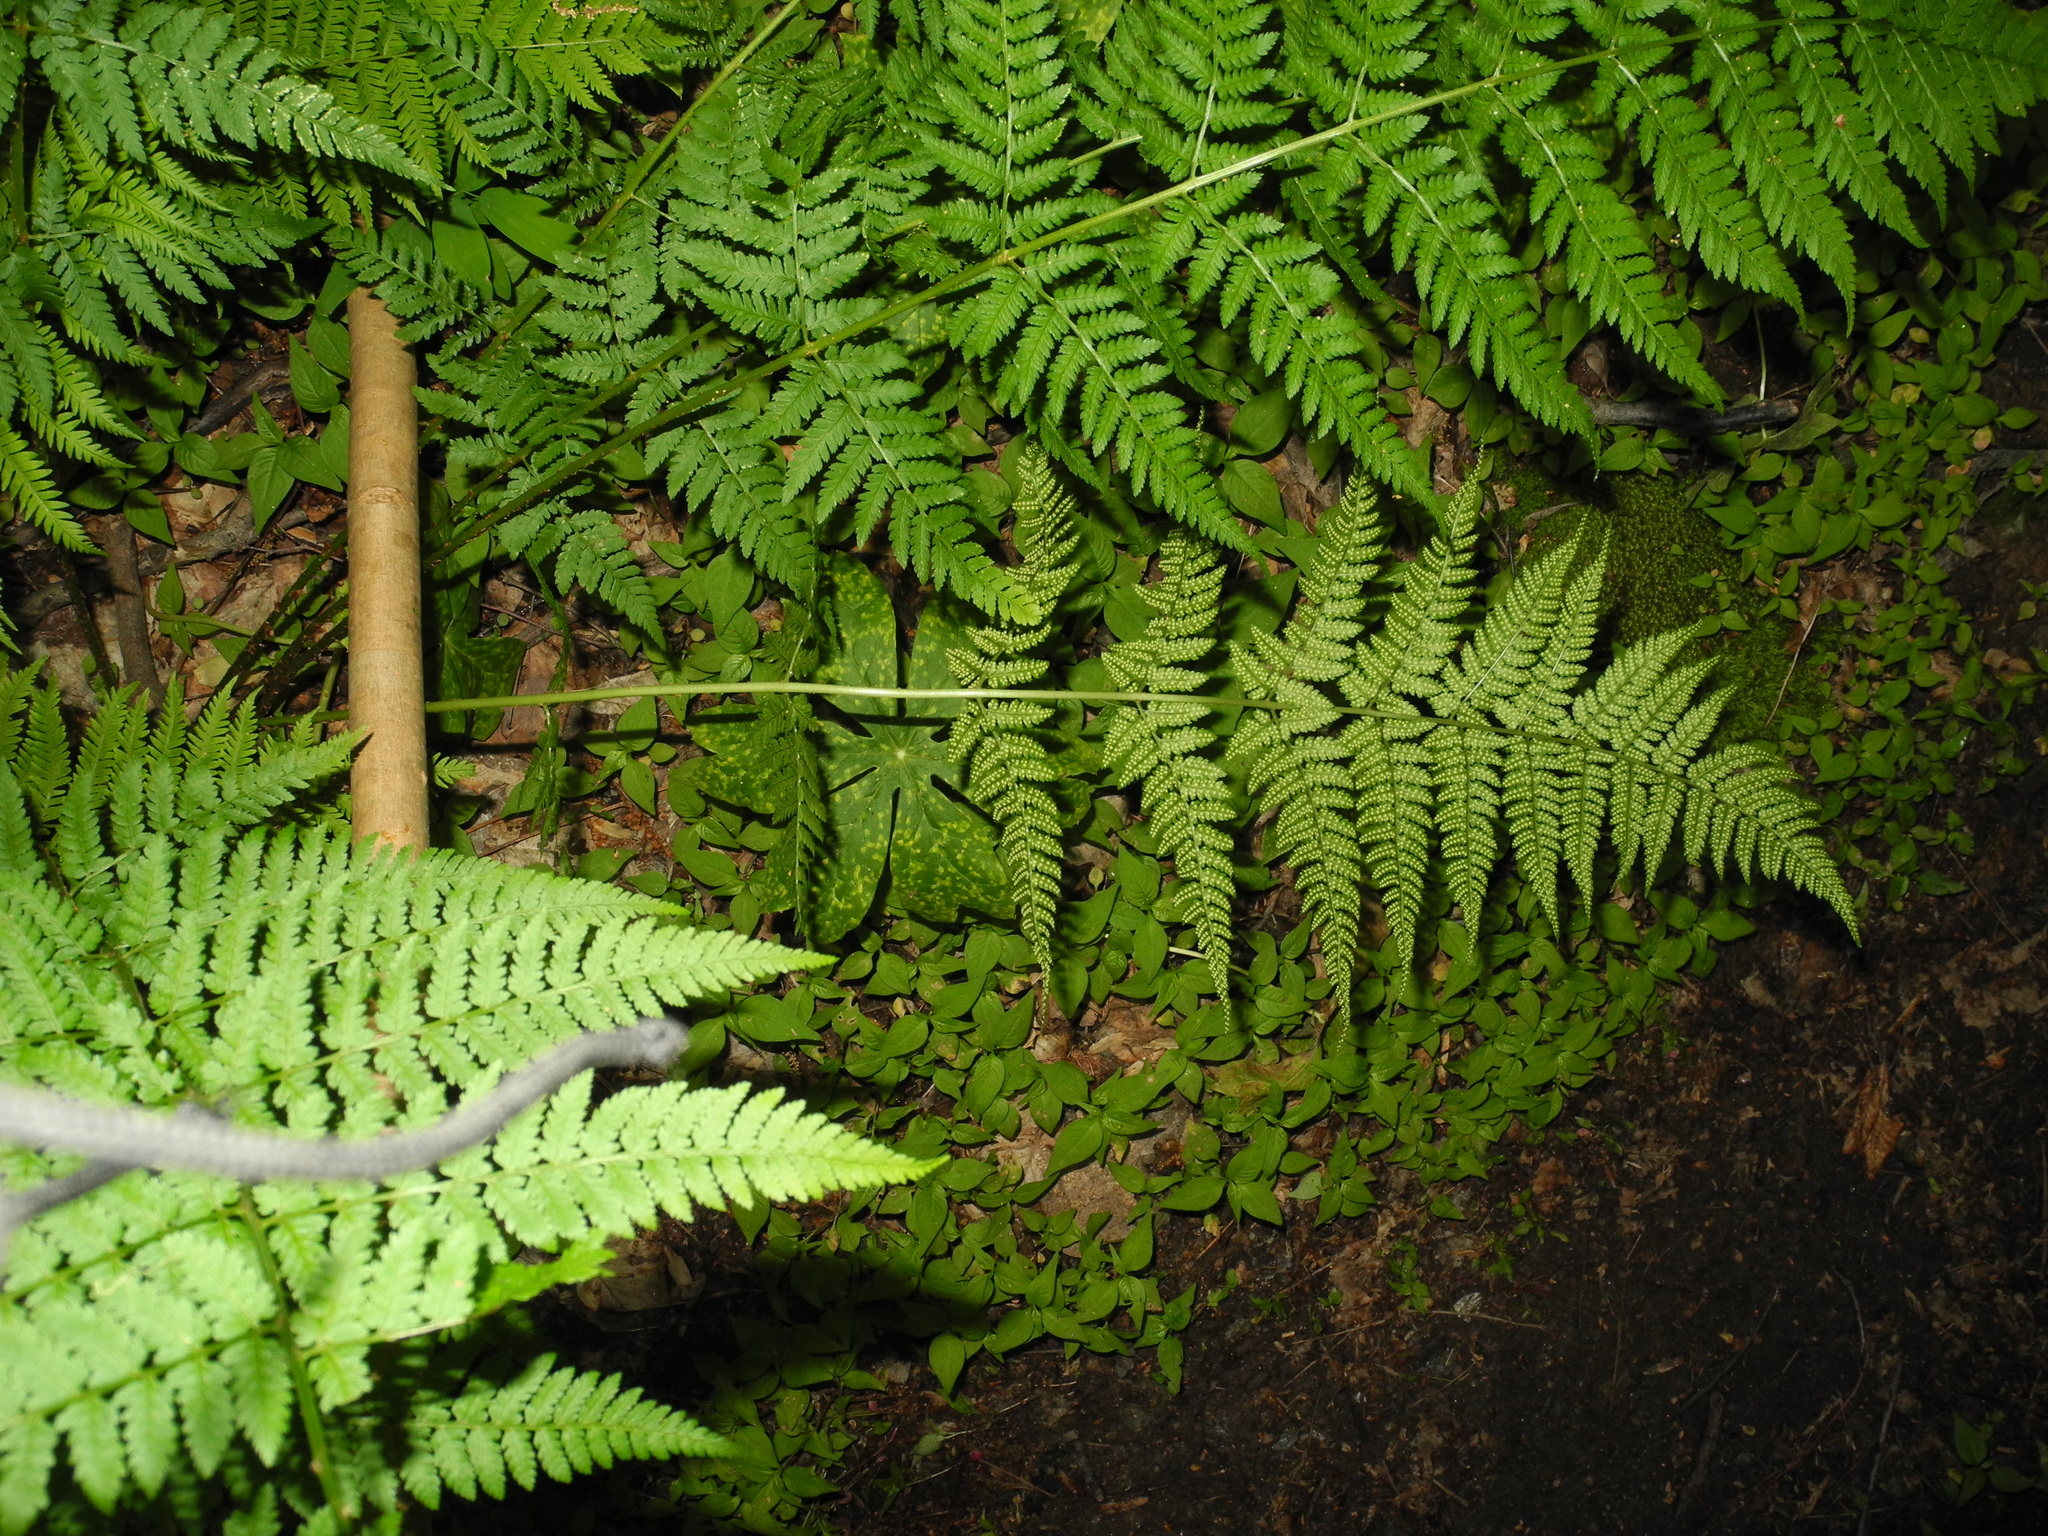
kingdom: Plantae
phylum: Tracheophyta
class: Polypodiopsida
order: Polypodiales
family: Dryopteridaceae
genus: Dryopteris
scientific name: Dryopteris carthusiana
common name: Narrow buckler-fern
